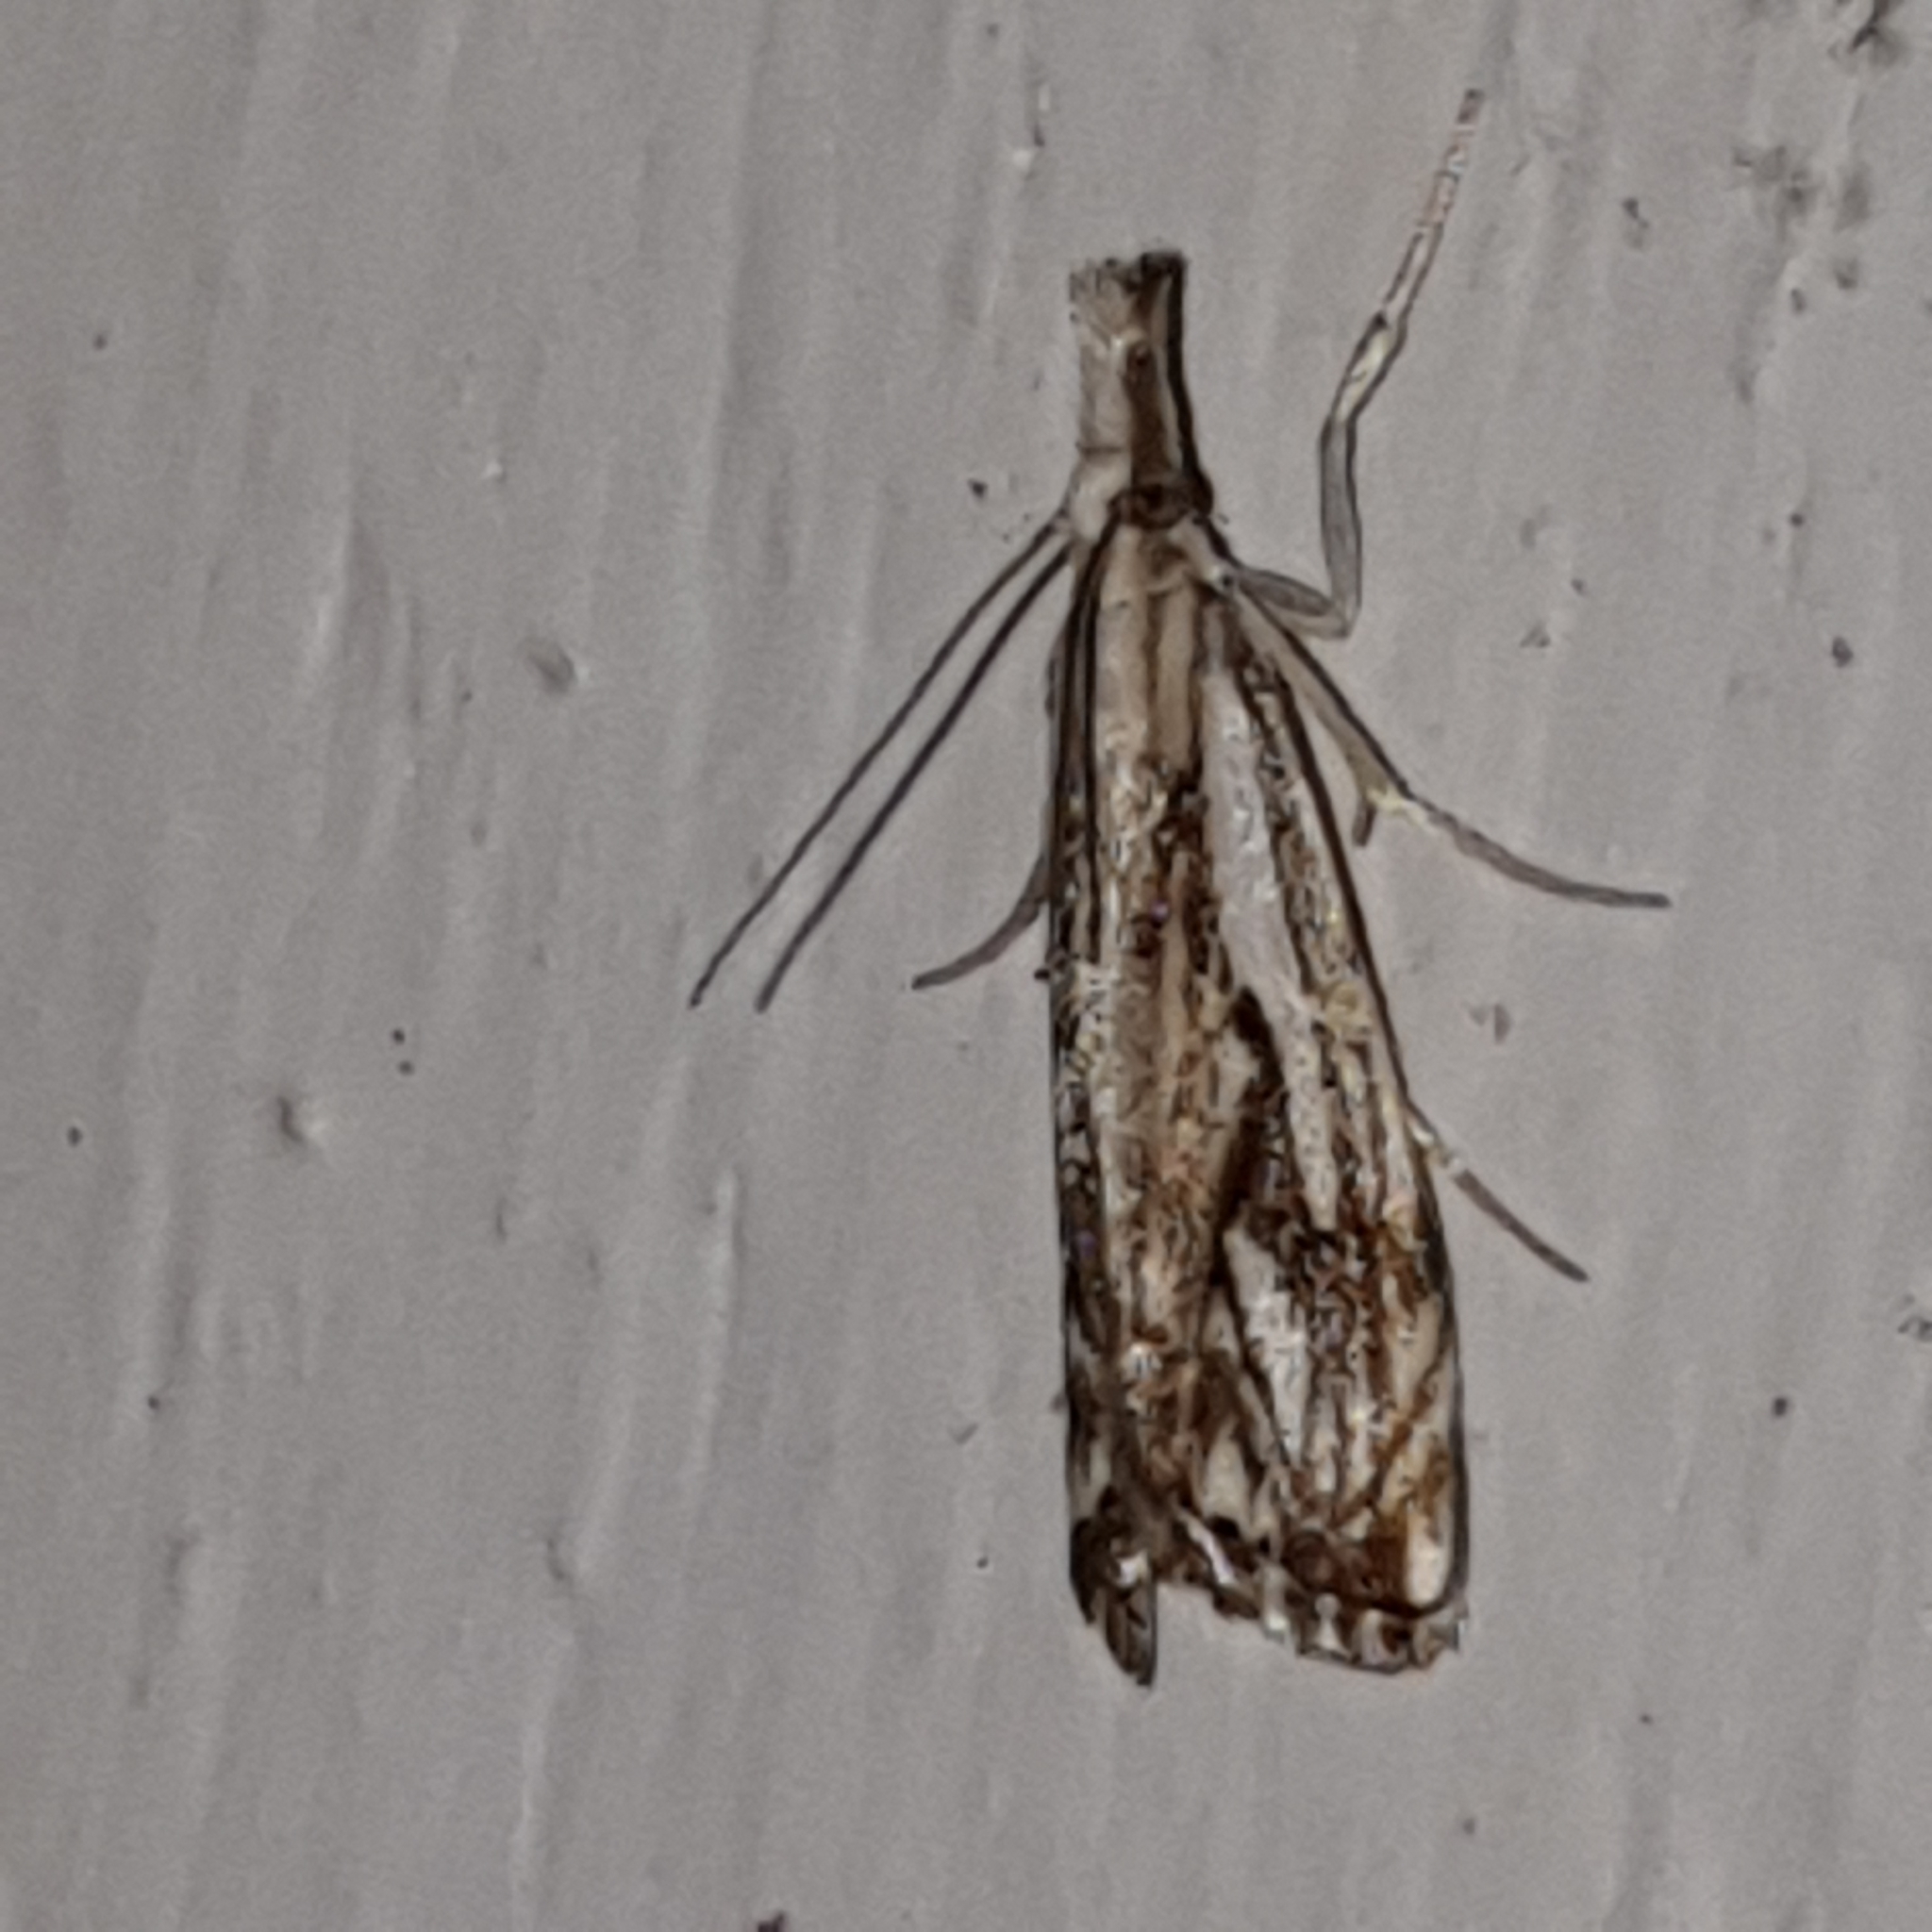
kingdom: Animalia
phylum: Arthropoda
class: Insecta
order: Lepidoptera
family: Crambidae
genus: Catoptria
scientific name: Catoptria falsella
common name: Chequered grass-veneer
